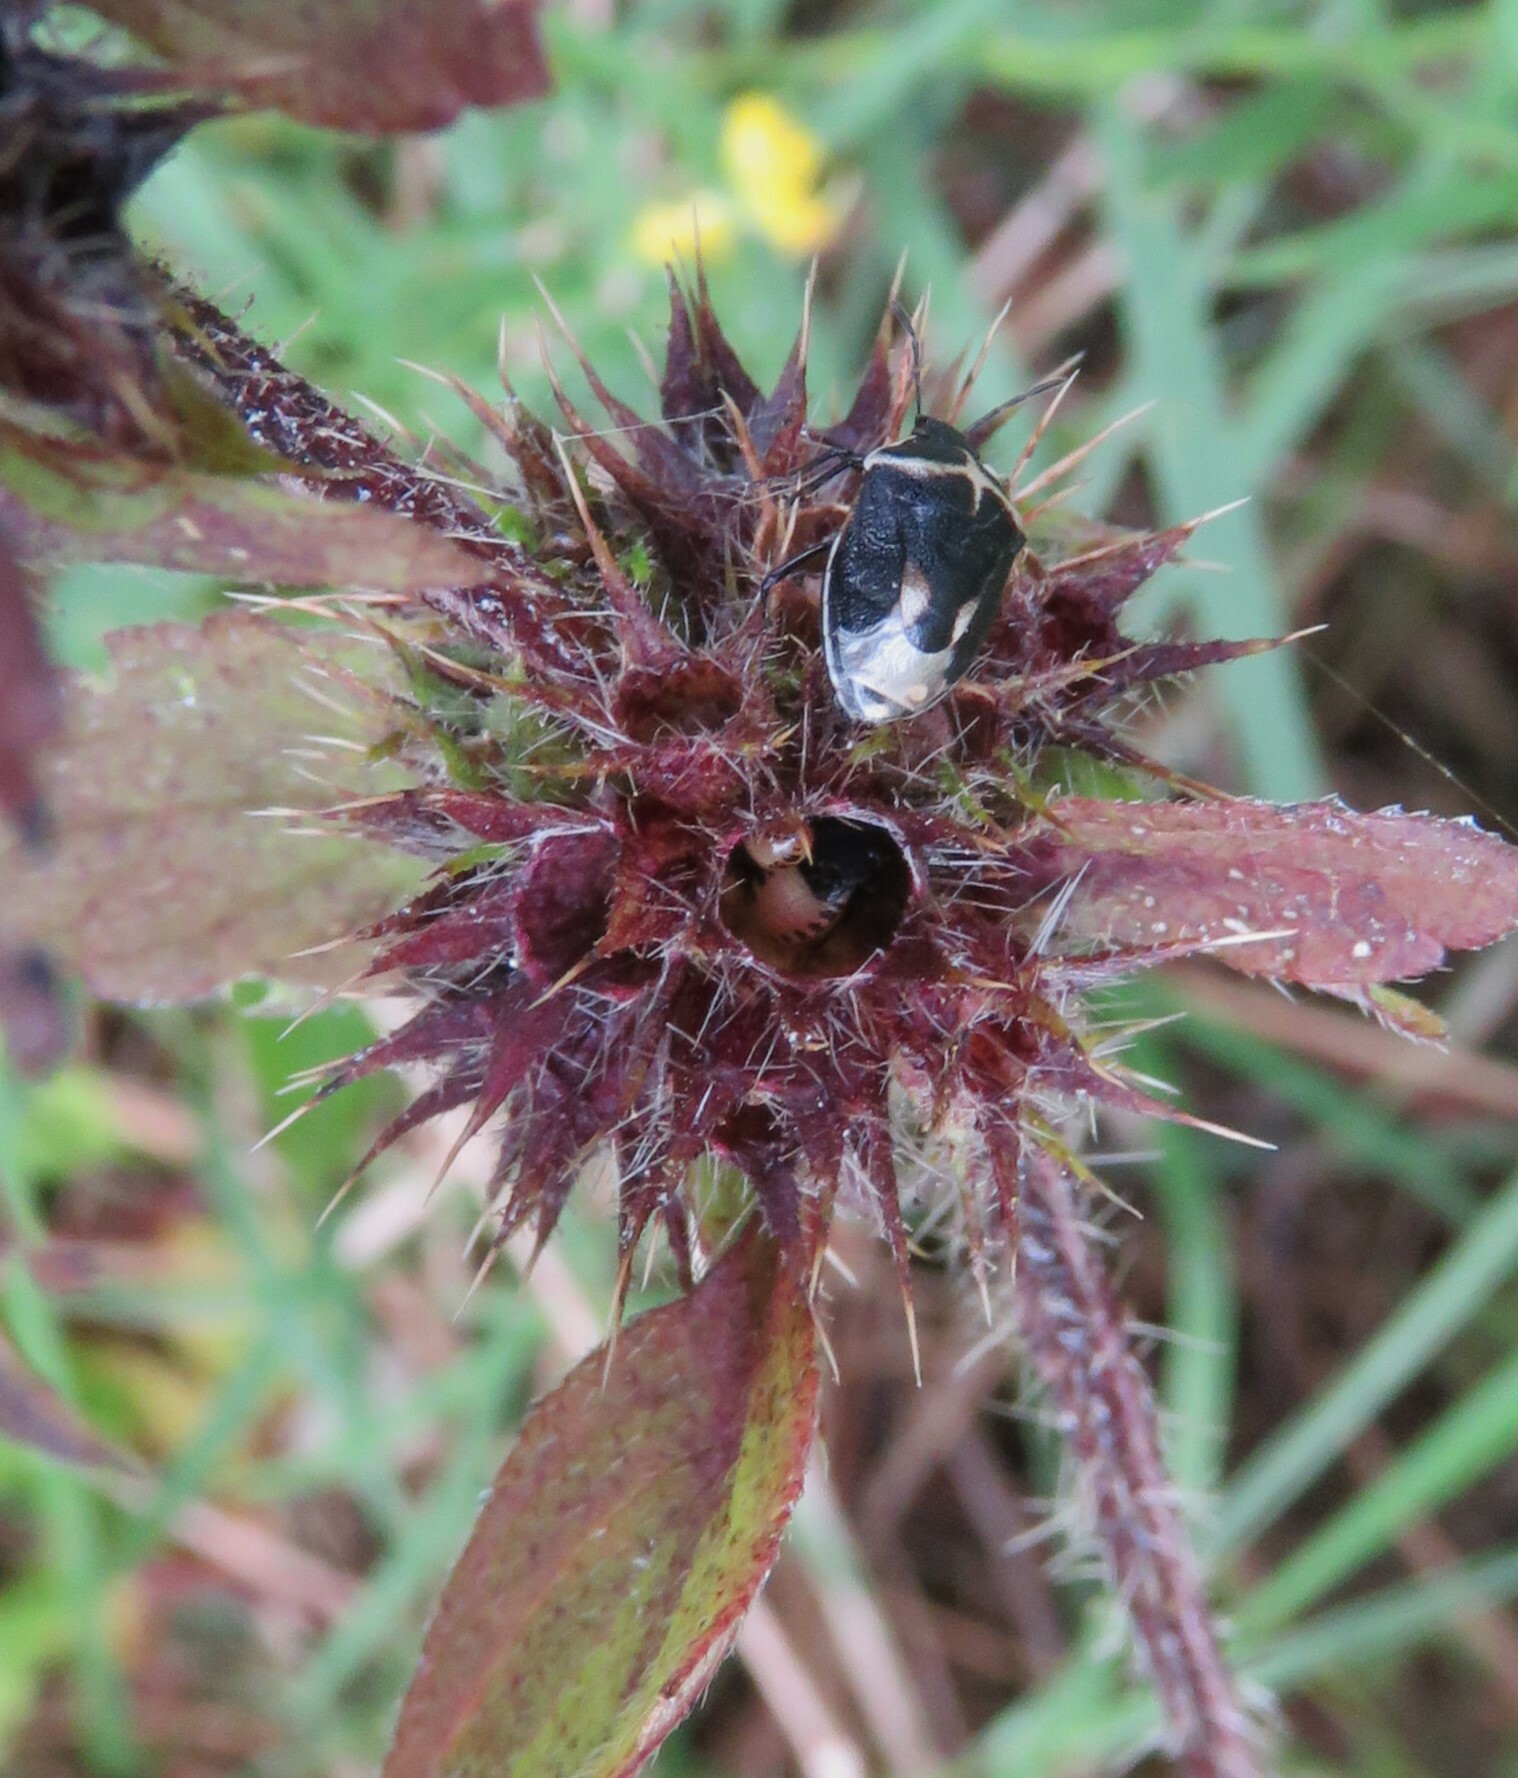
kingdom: Animalia
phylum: Arthropoda
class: Insecta
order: Hemiptera
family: Pentatomidae
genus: Cosmopepla
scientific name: Cosmopepla lintneriana
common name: Twice-stabbed stink bug
